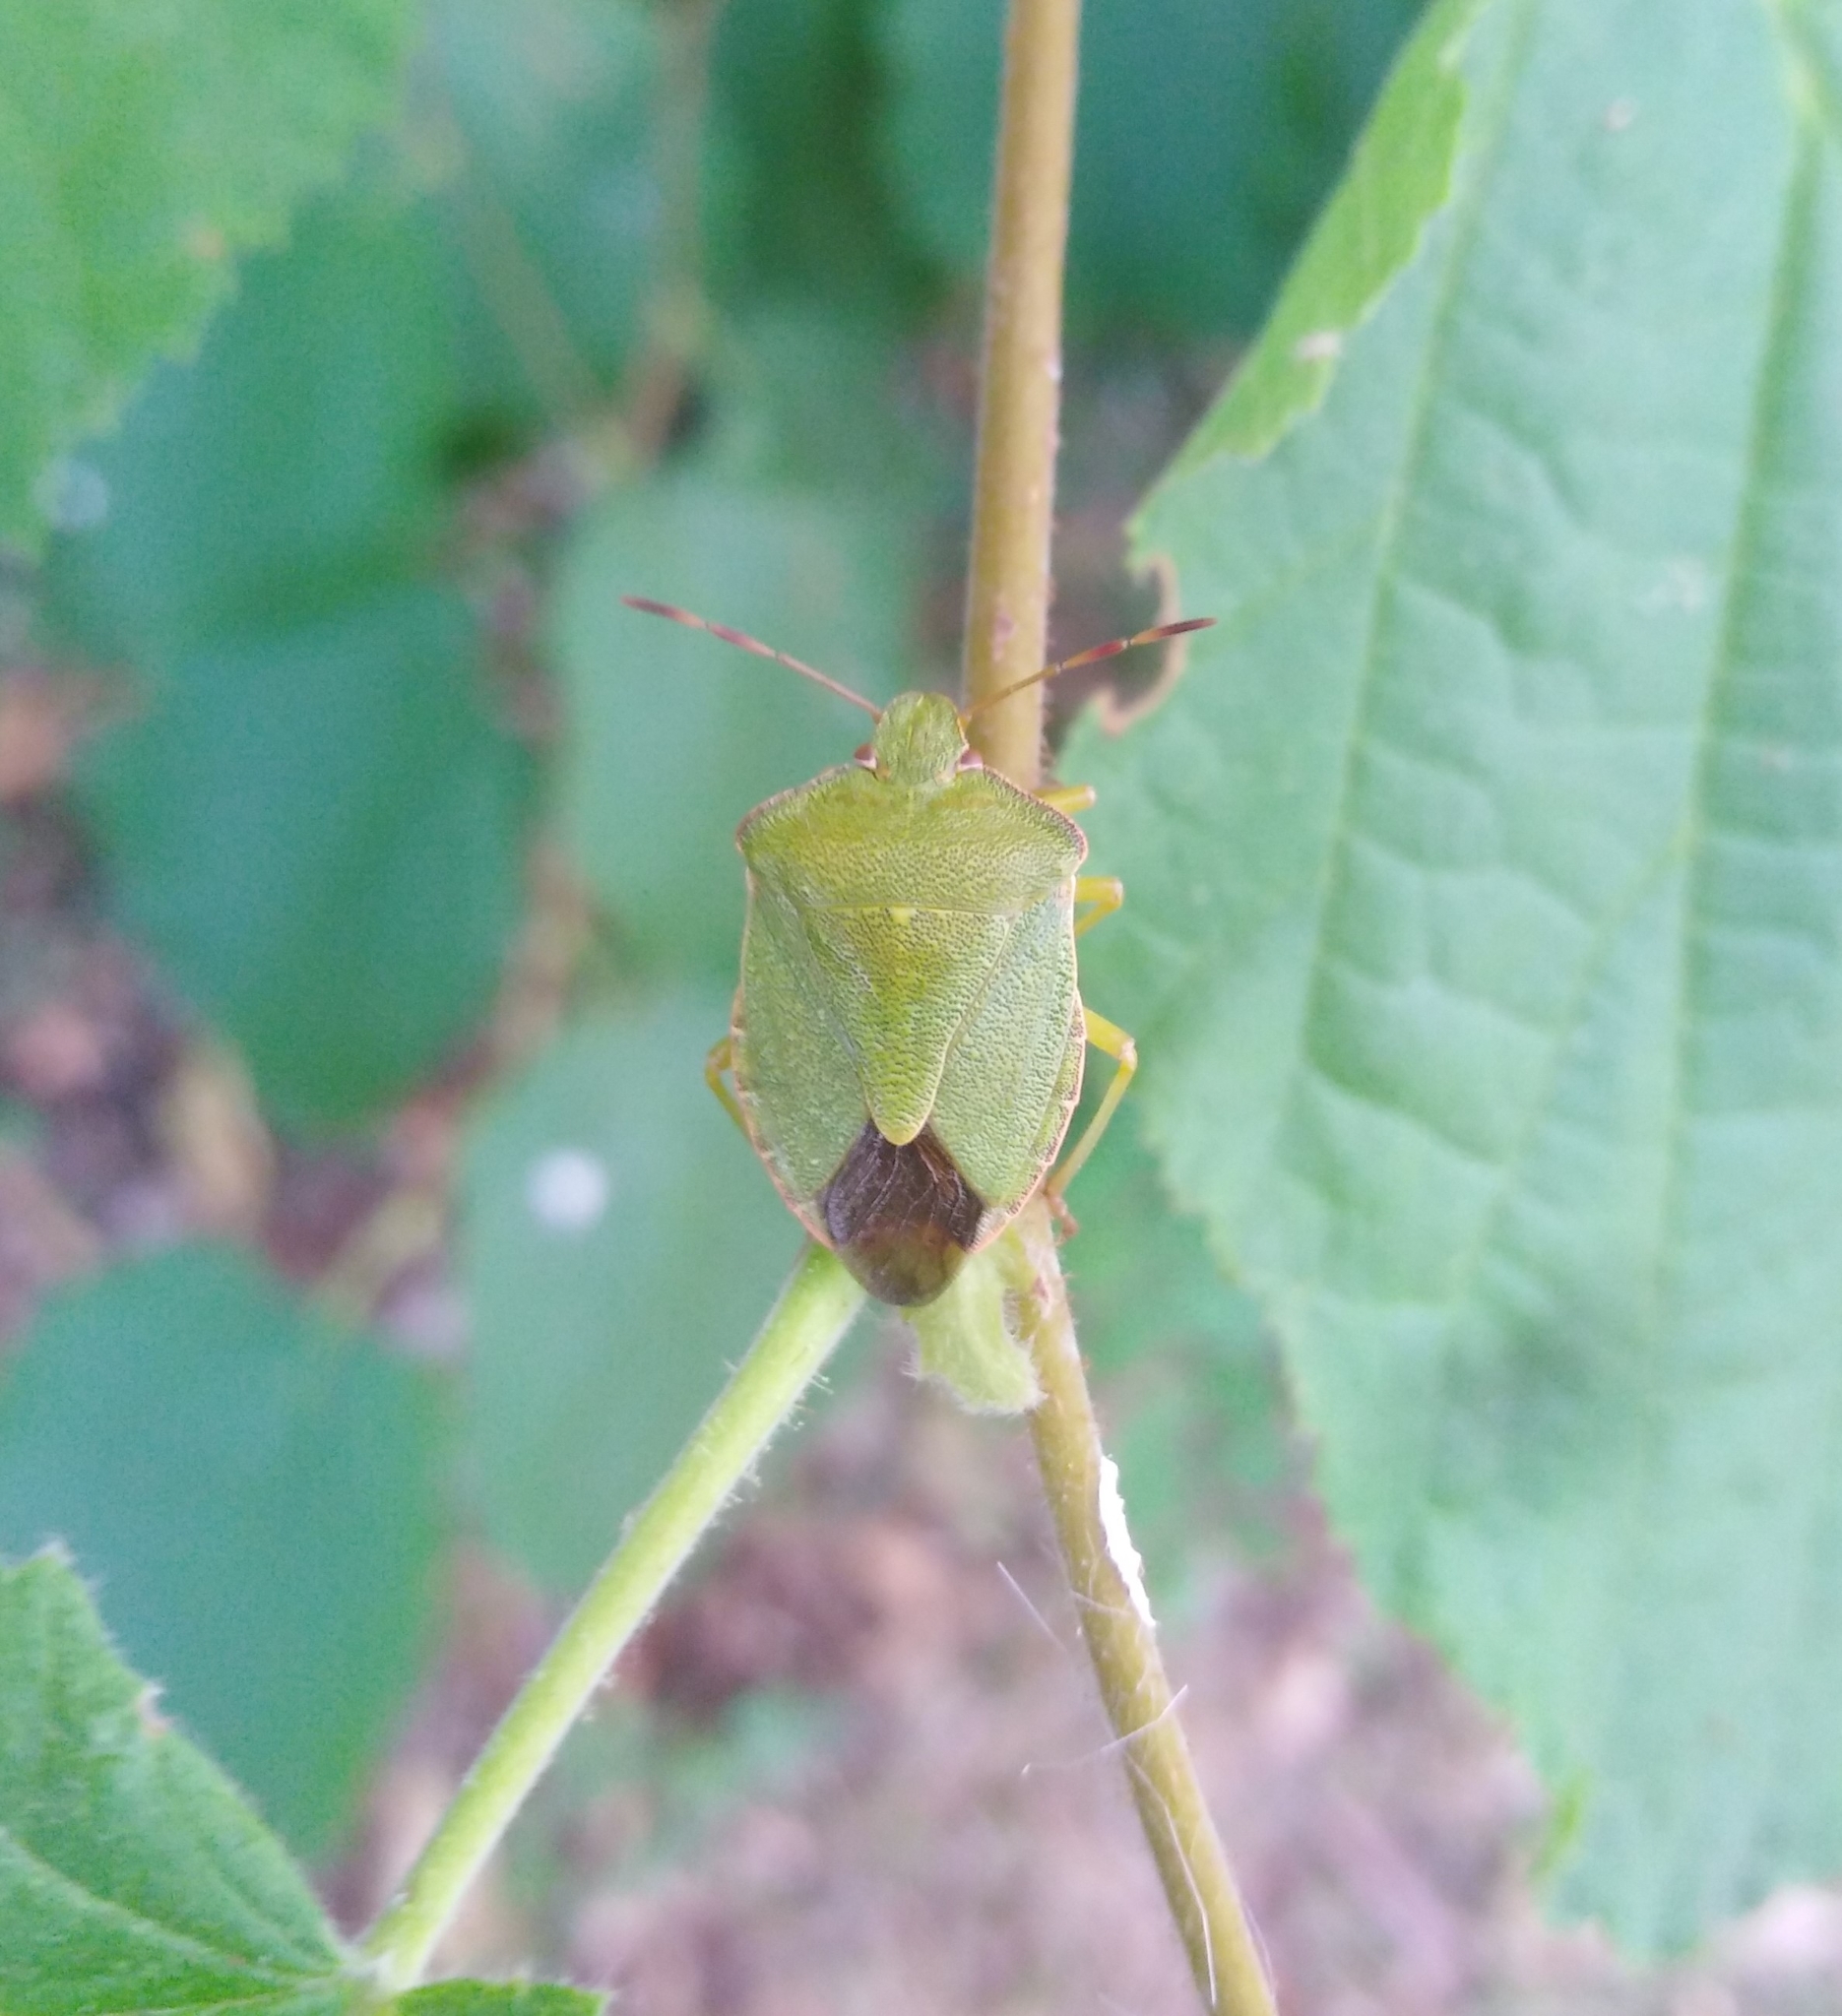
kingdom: Animalia
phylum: Arthropoda
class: Insecta
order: Hemiptera
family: Pentatomidae
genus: Palomena
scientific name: Palomena prasina
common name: Green shieldbug
